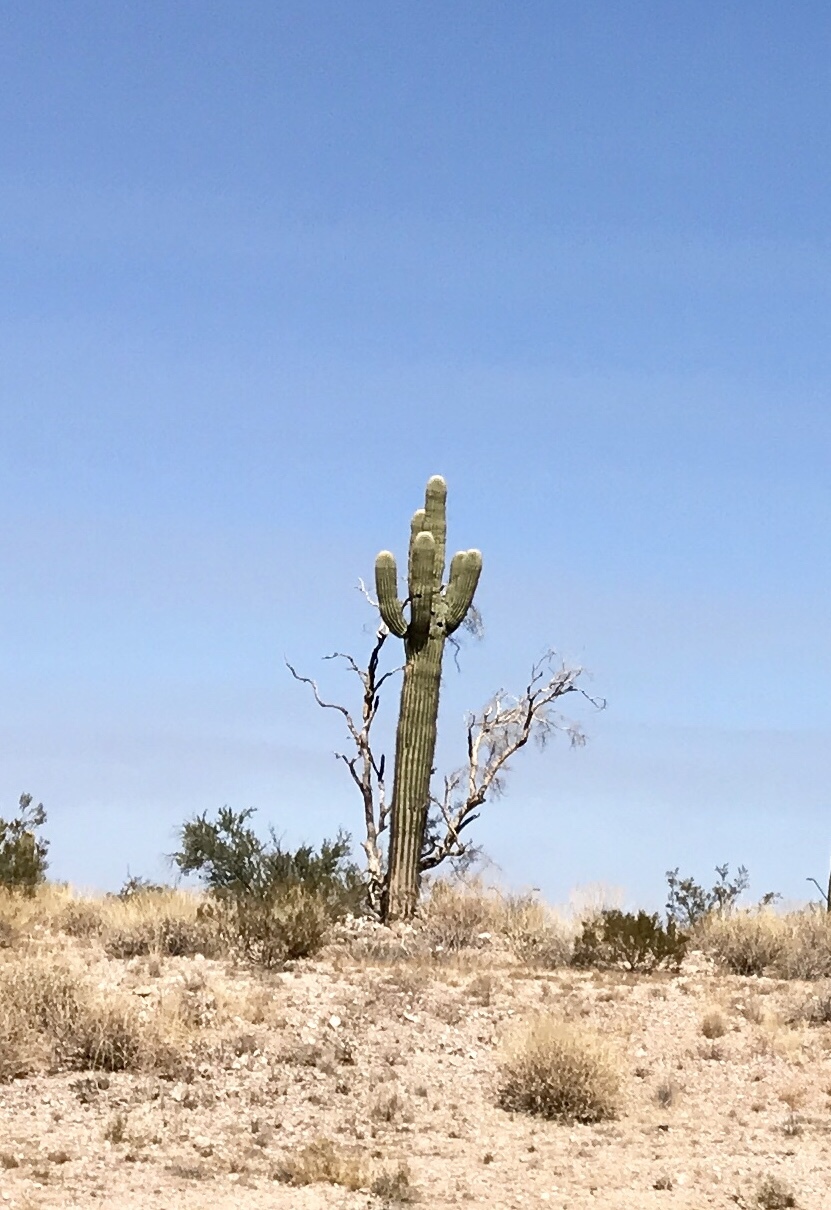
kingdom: Plantae
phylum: Tracheophyta
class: Magnoliopsida
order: Caryophyllales
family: Cactaceae
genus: Carnegiea
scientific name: Carnegiea gigantea
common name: Saguaro
